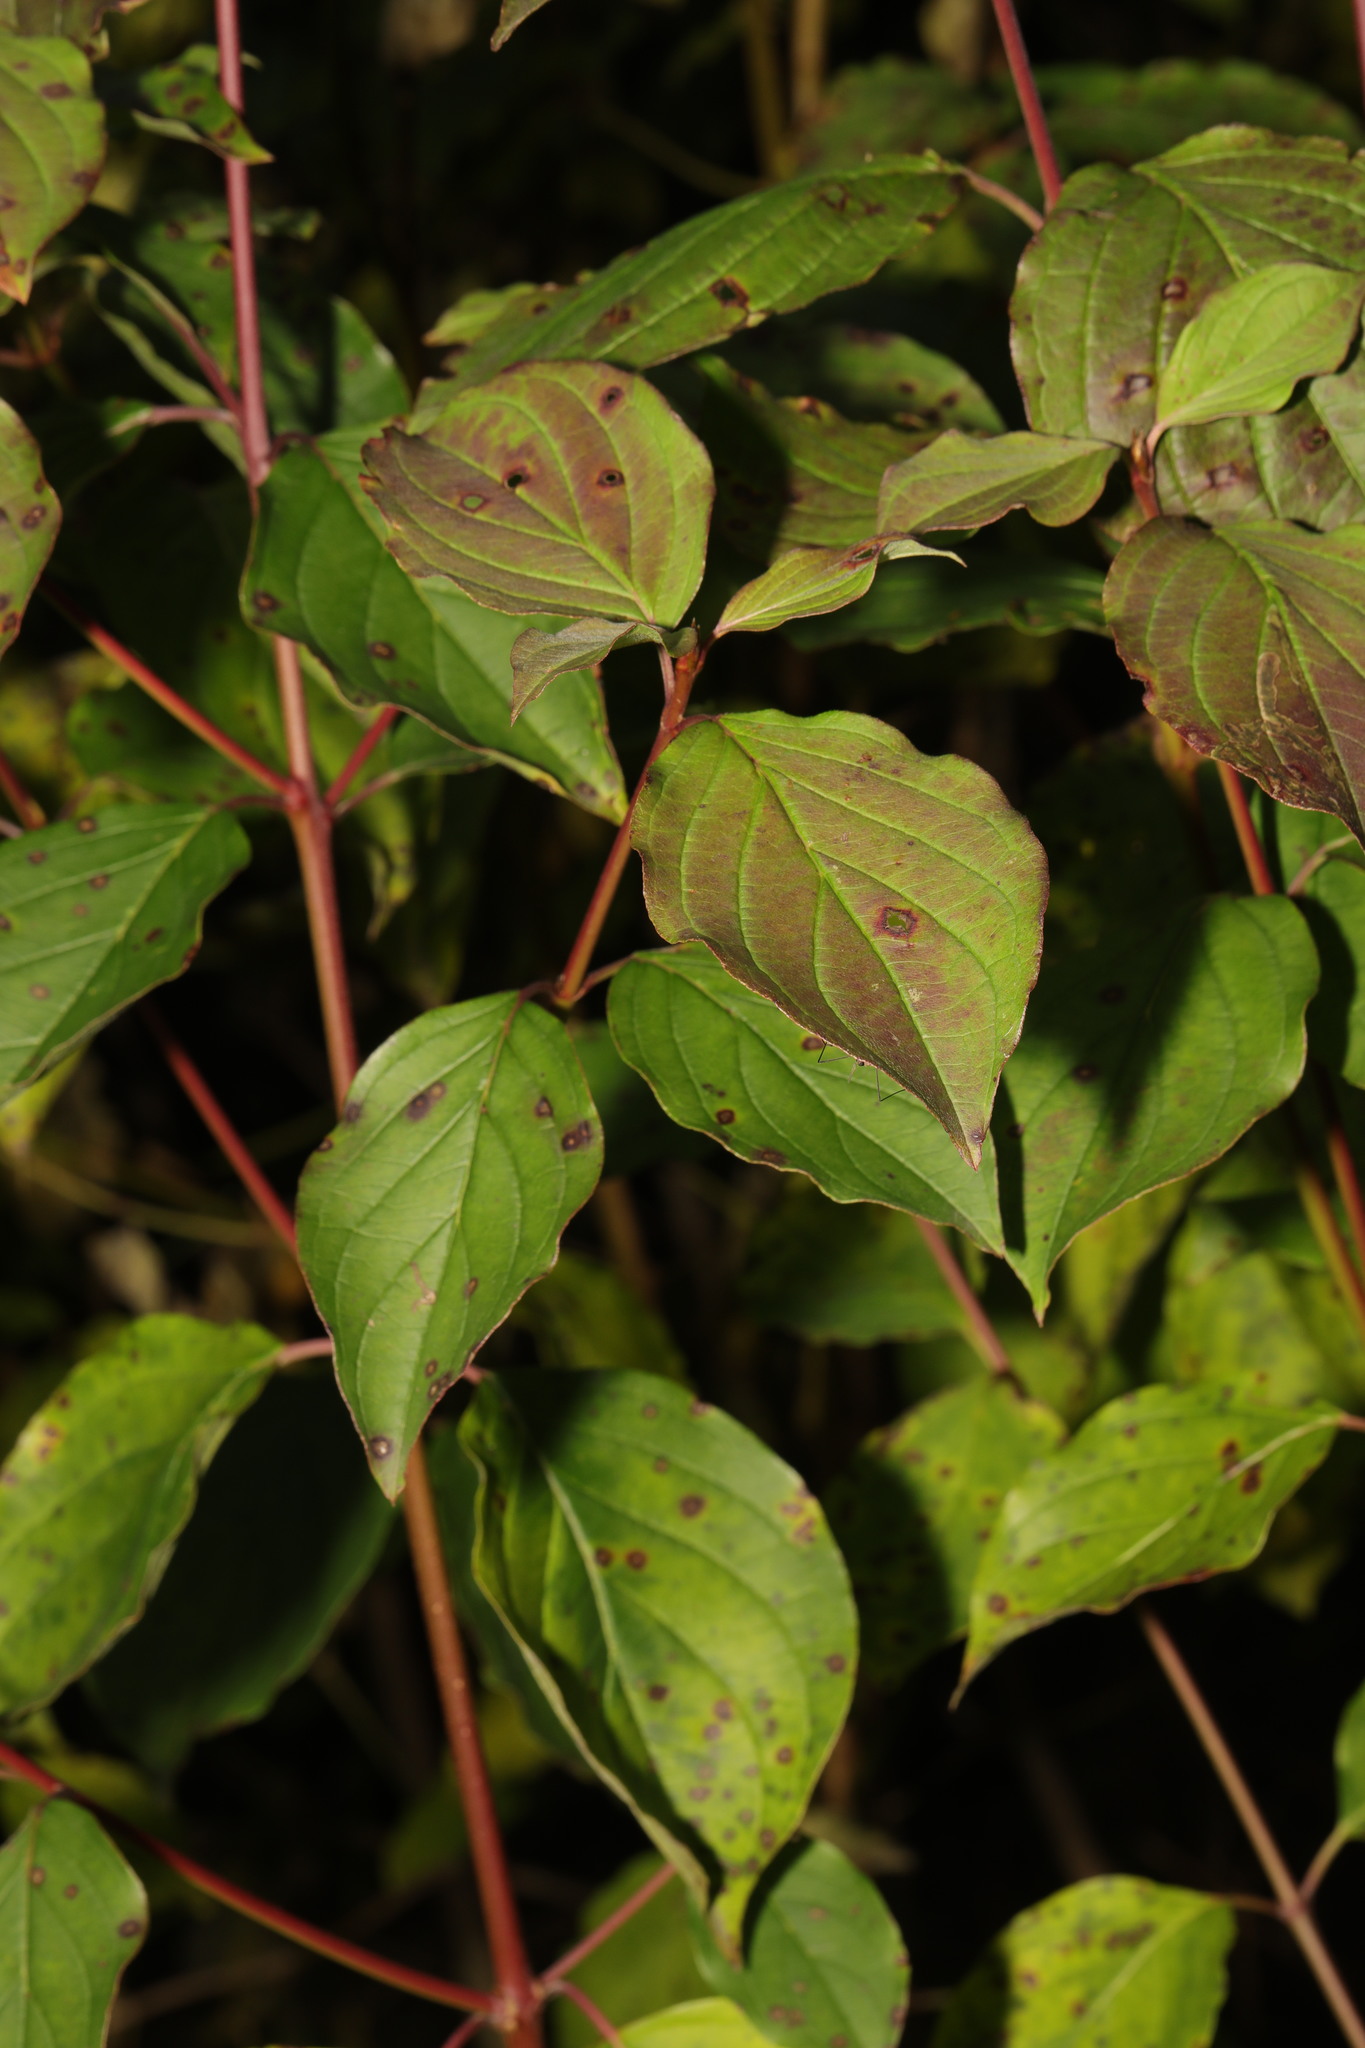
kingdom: Plantae
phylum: Tracheophyta
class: Magnoliopsida
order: Cornales
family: Cornaceae
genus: Cornus
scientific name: Cornus sanguinea
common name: Dogwood
